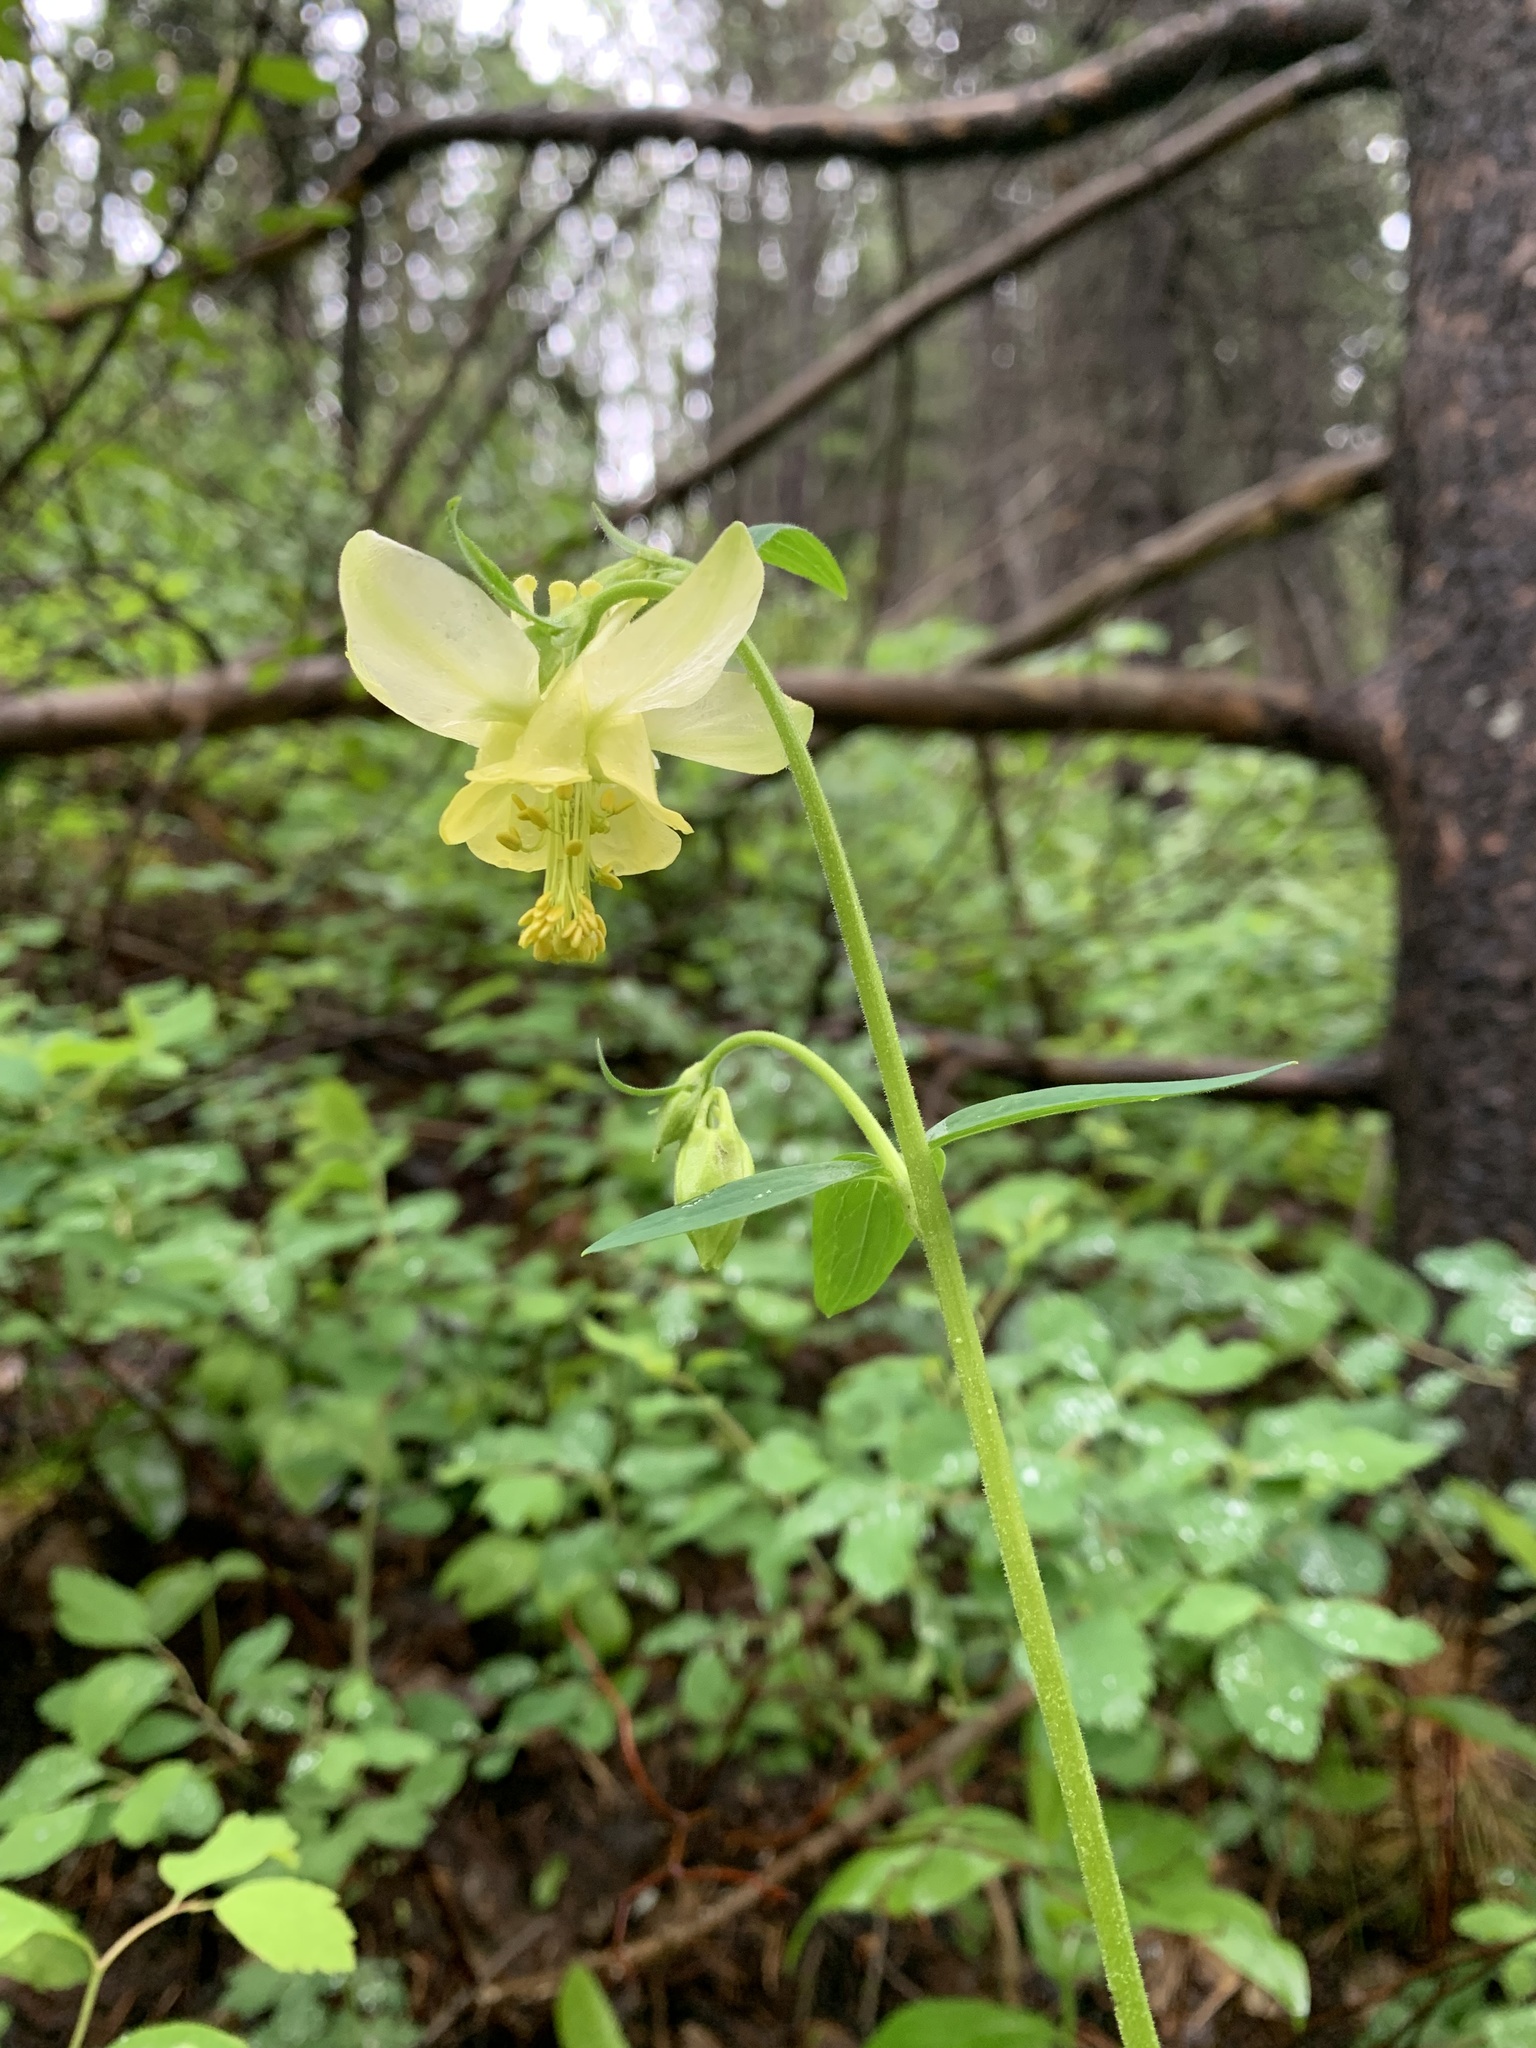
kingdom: Plantae
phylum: Tracheophyta
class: Magnoliopsida
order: Ranunculales
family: Ranunculaceae
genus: Aquilegia
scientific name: Aquilegia flavescens
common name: Yellow columbine
